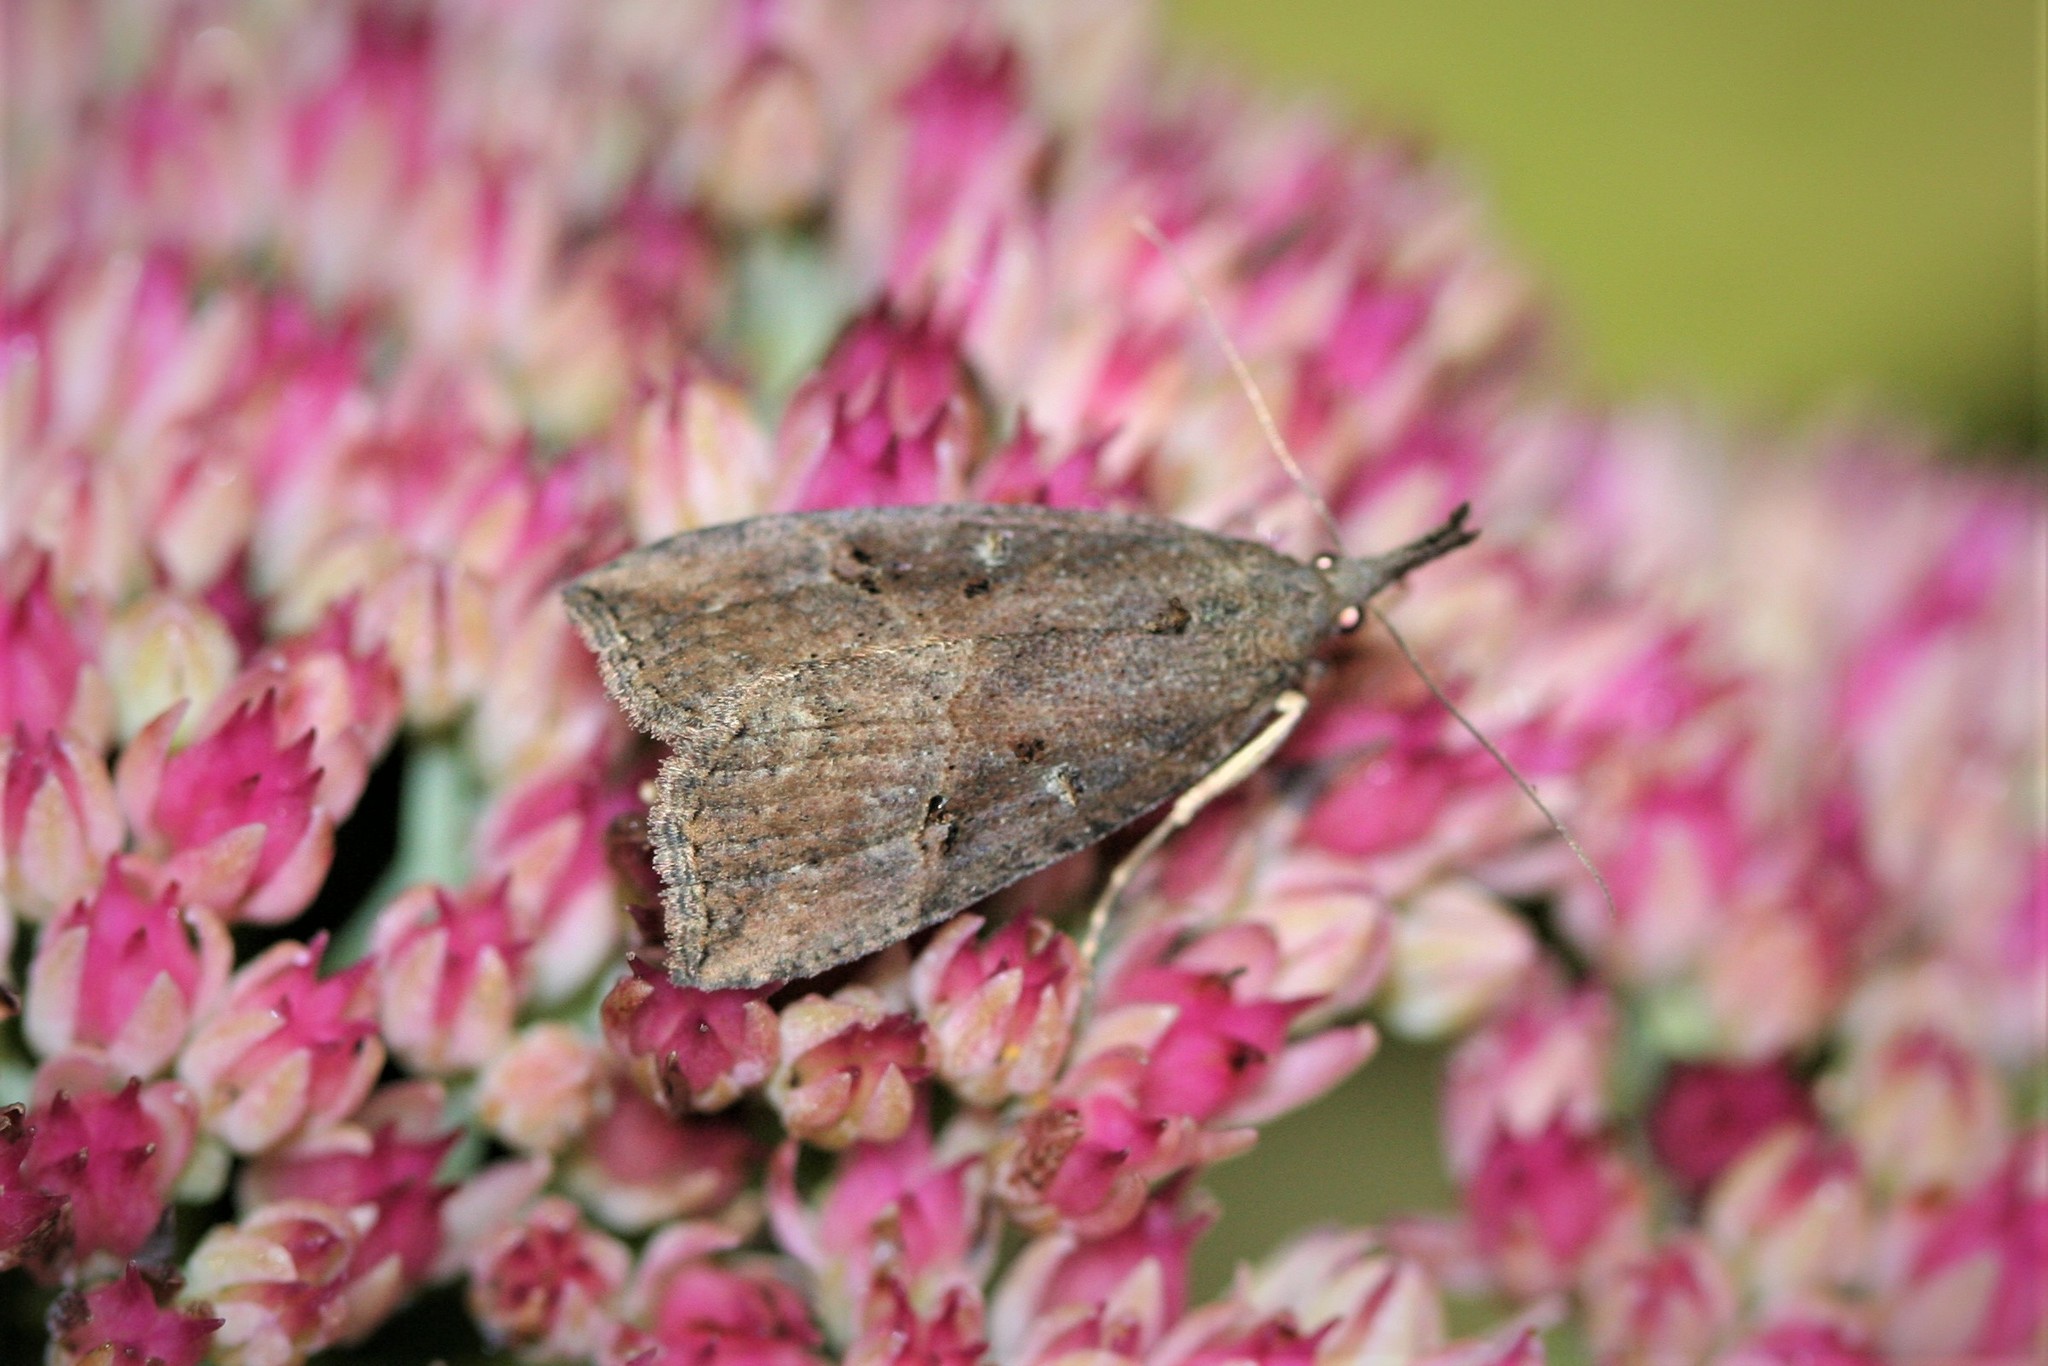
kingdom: Animalia
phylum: Arthropoda
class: Insecta
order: Lepidoptera
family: Erebidae
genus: Hypena
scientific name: Hypena rostralis
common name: Buttoned snout
